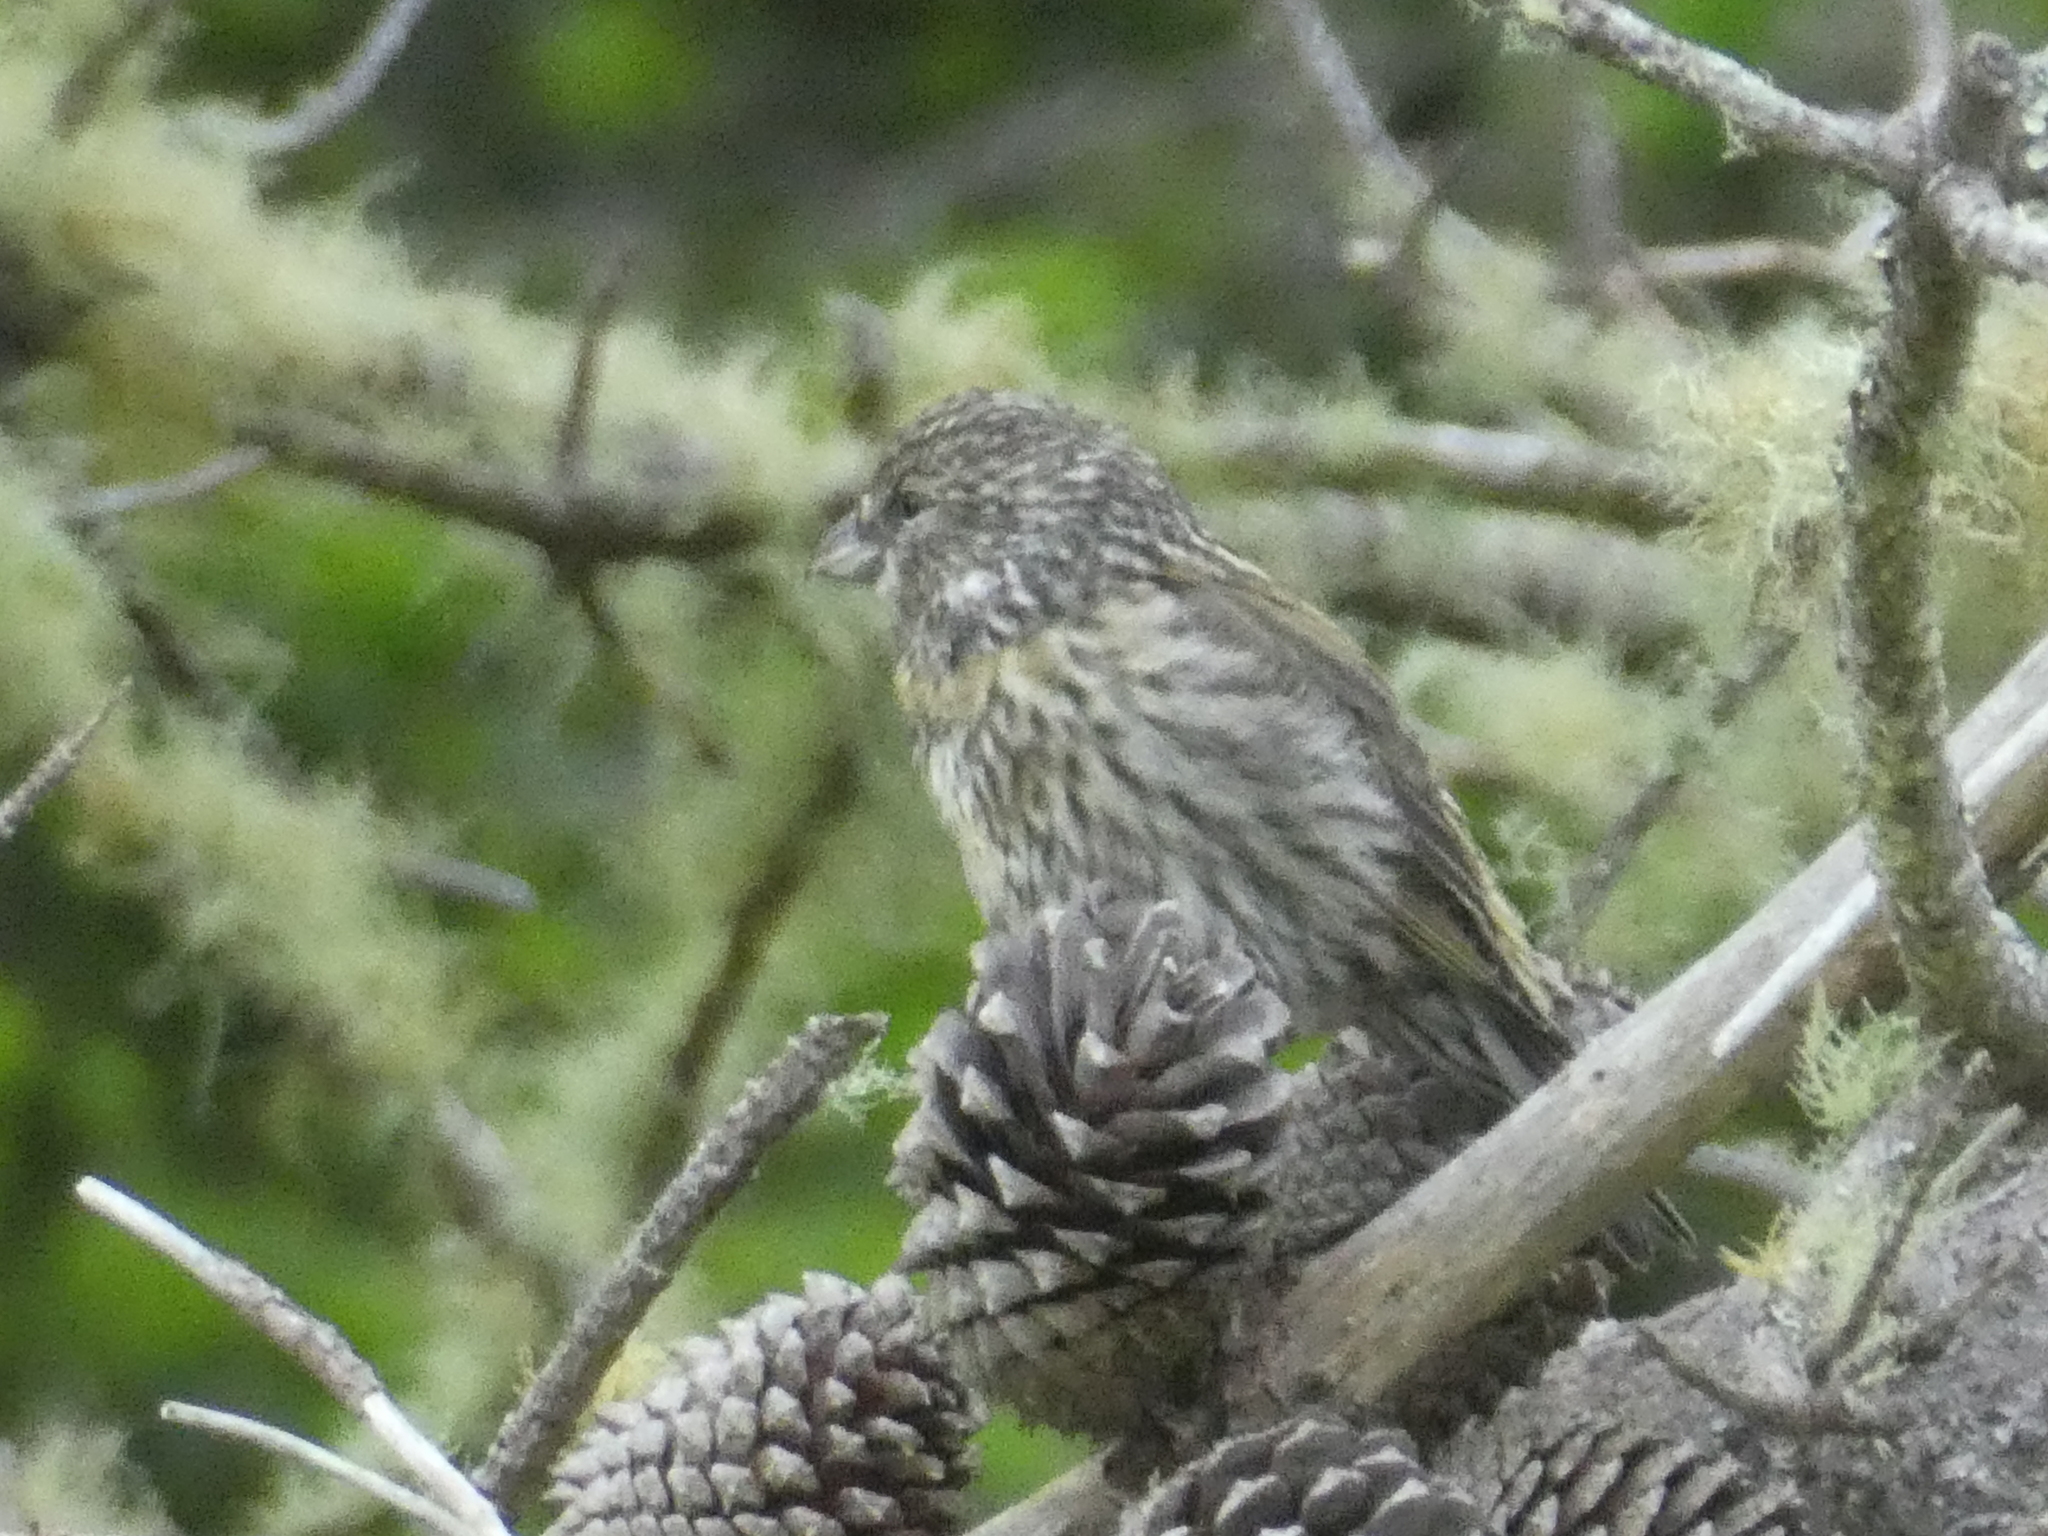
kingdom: Animalia
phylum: Chordata
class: Aves
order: Passeriformes
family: Fringillidae
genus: Loxia
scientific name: Loxia curvirostra
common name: Red crossbill
